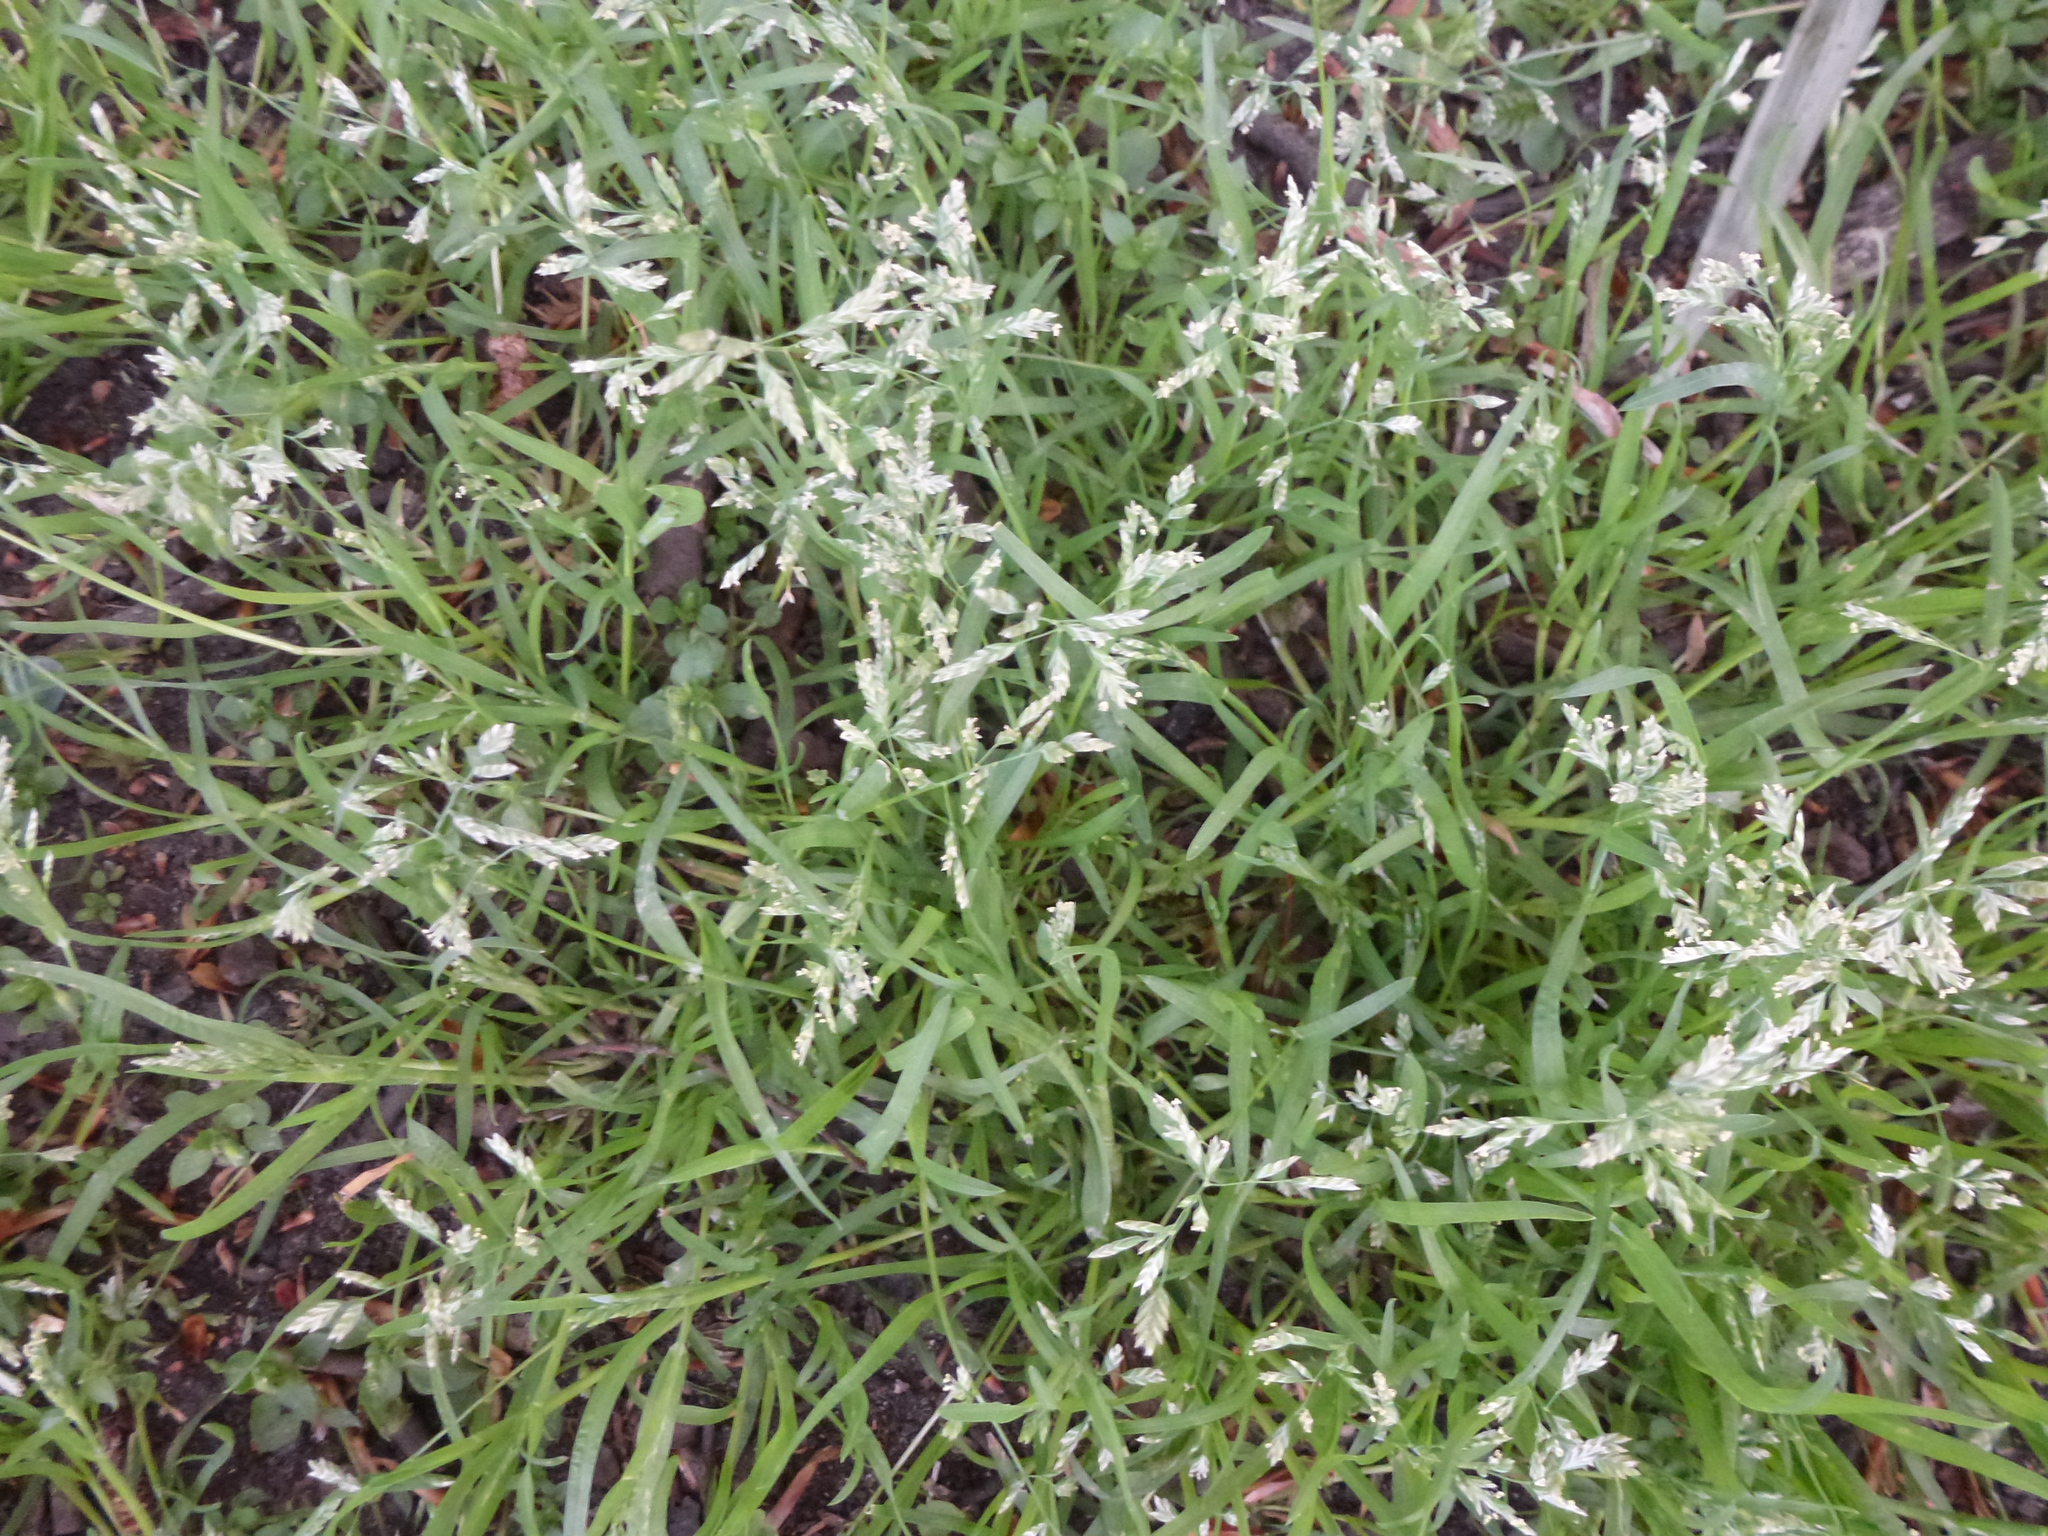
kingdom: Plantae
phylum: Tracheophyta
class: Liliopsida
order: Poales
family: Poaceae
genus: Poa
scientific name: Poa annua
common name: Annual bluegrass
